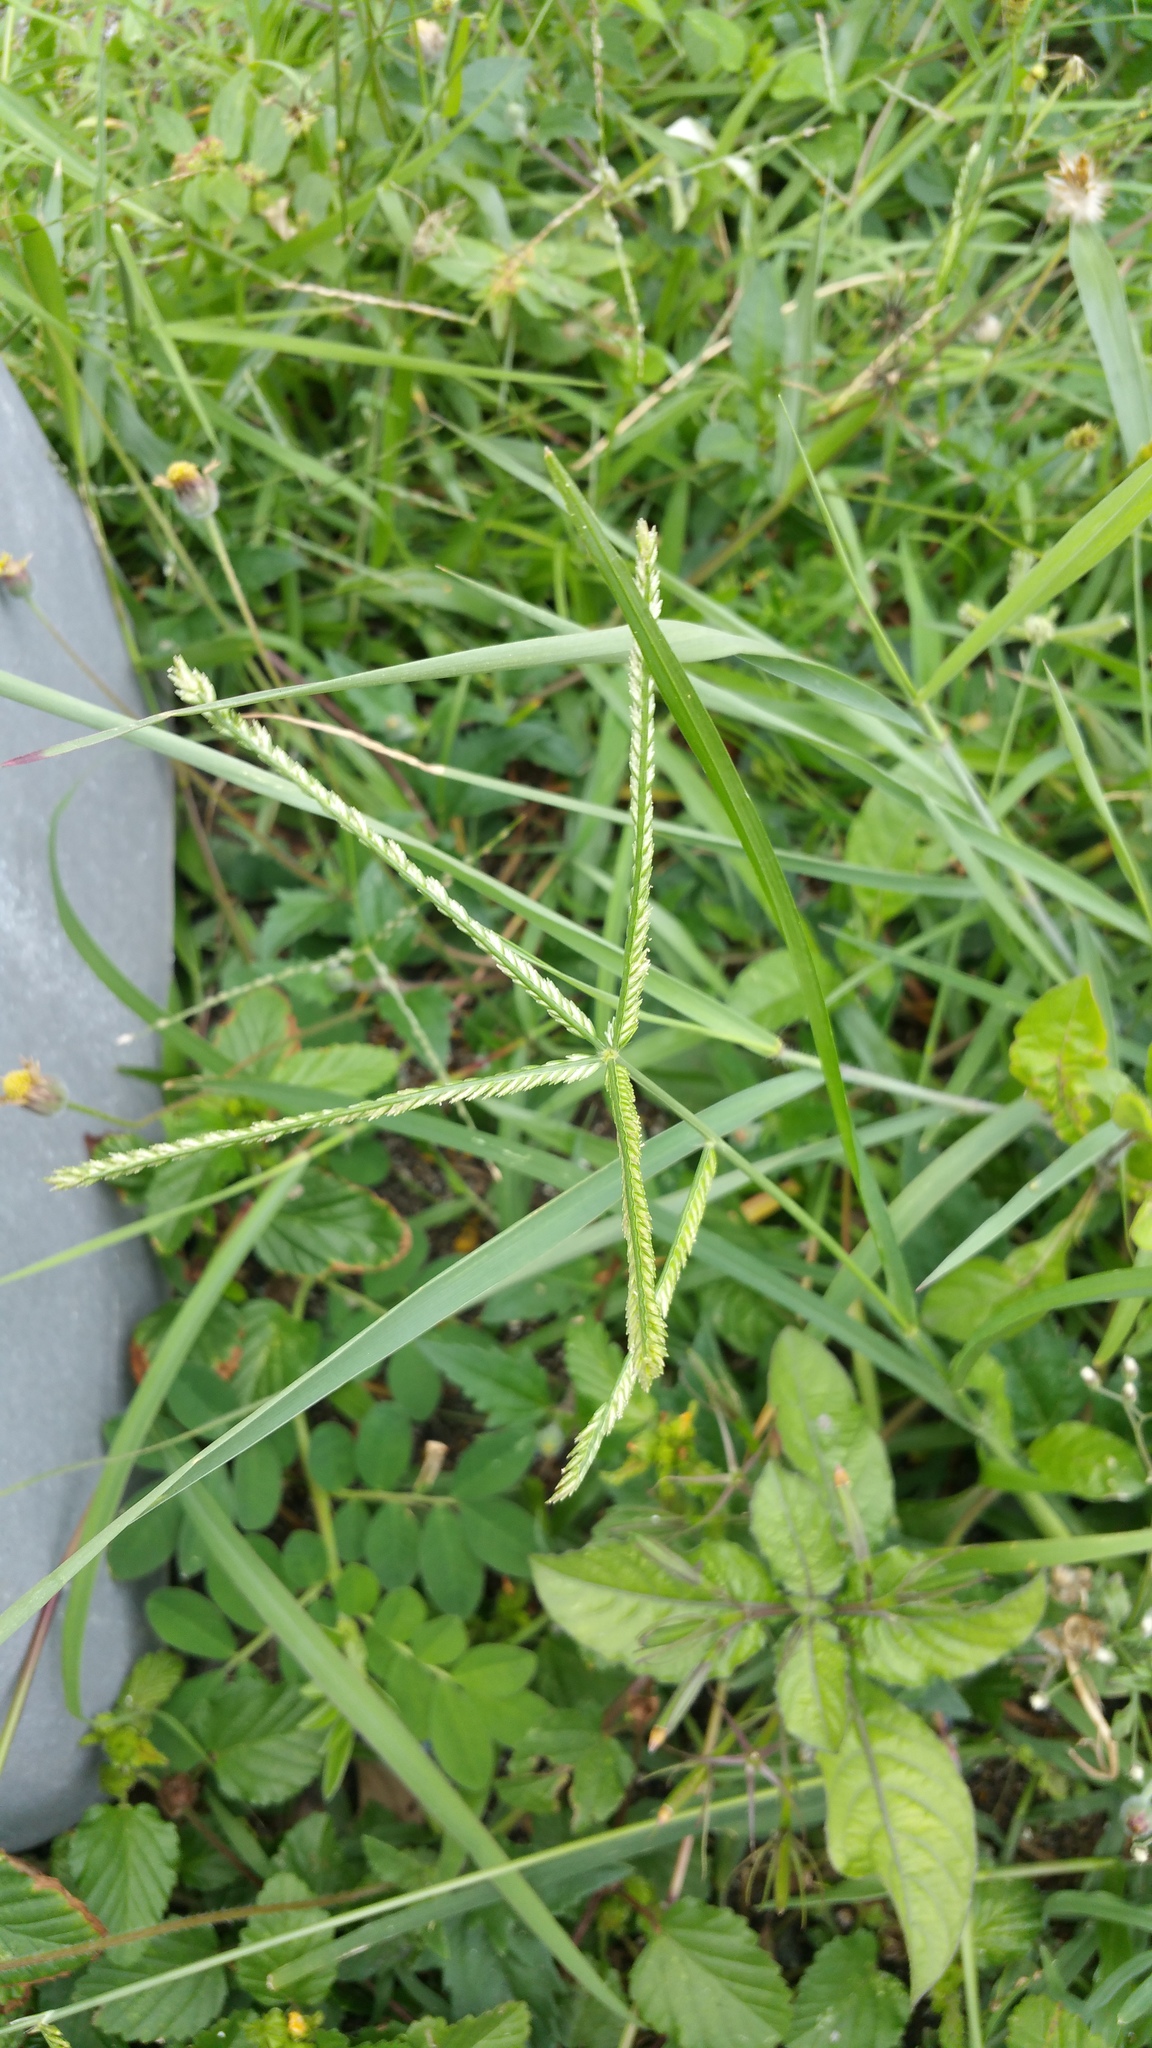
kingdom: Plantae
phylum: Tracheophyta
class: Liliopsida
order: Poales
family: Poaceae
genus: Eleusine
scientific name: Eleusine indica
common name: Yard-grass
